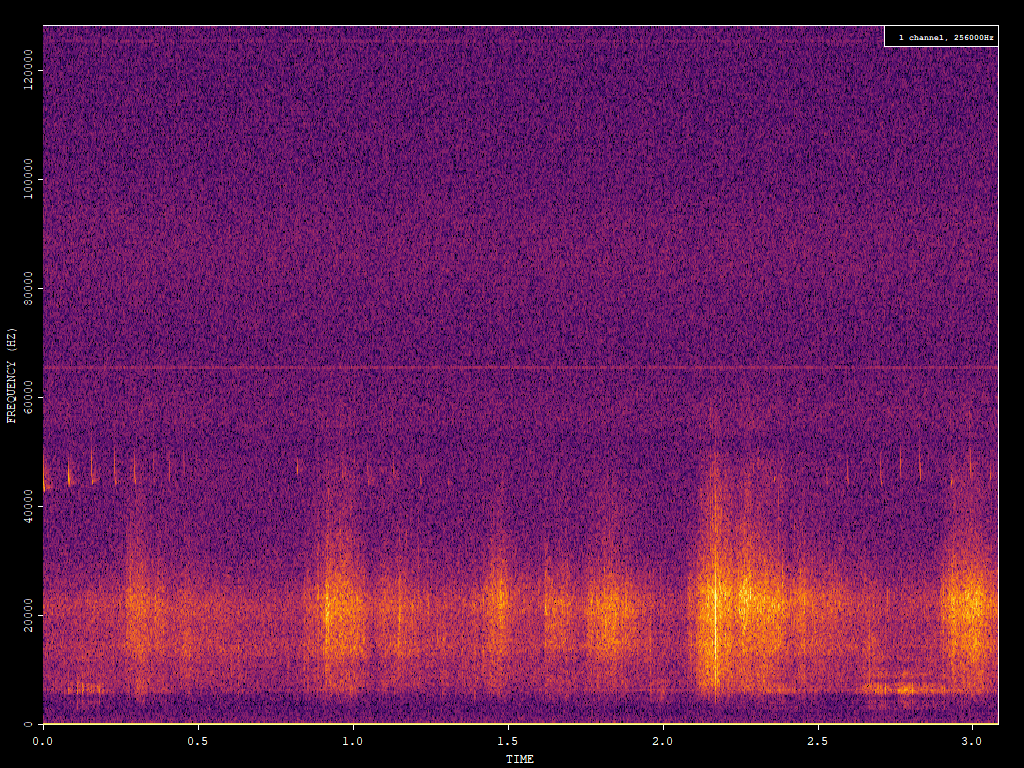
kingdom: Animalia
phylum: Chordata
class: Mammalia
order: Chiroptera
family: Vespertilionidae
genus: Pipistrellus
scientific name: Pipistrellus pipistrellus
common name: Common pipistrelle
